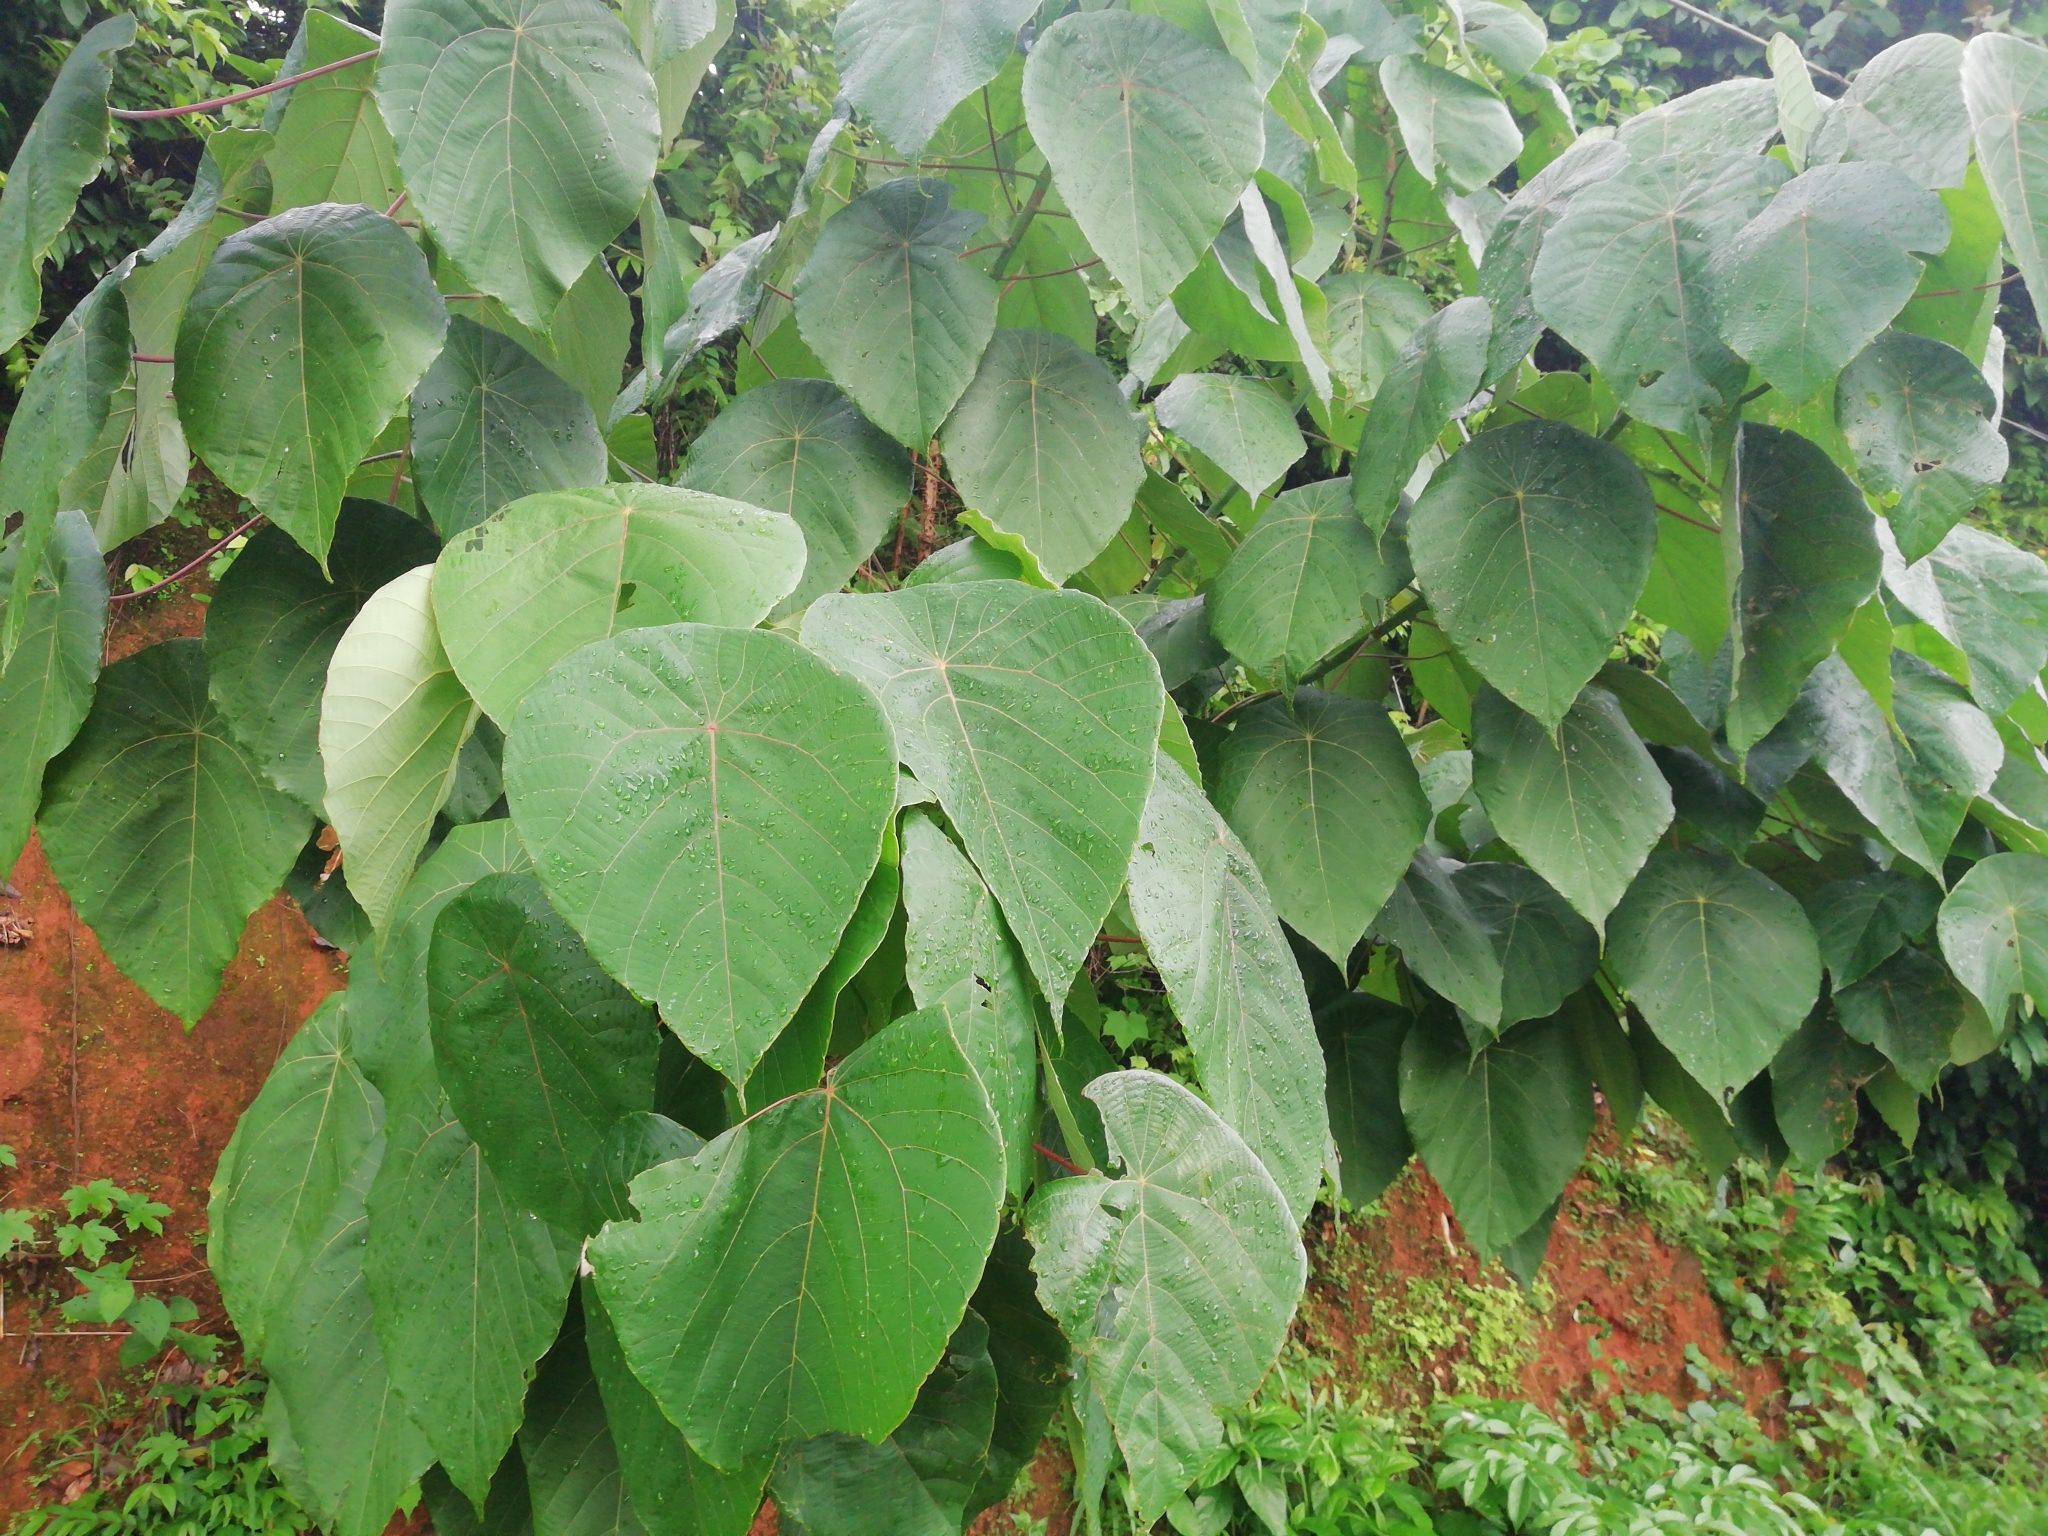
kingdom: Plantae
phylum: Tracheophyta
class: Magnoliopsida
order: Malpighiales
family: Euphorbiaceae
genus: Macaranga
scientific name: Macaranga peltata
